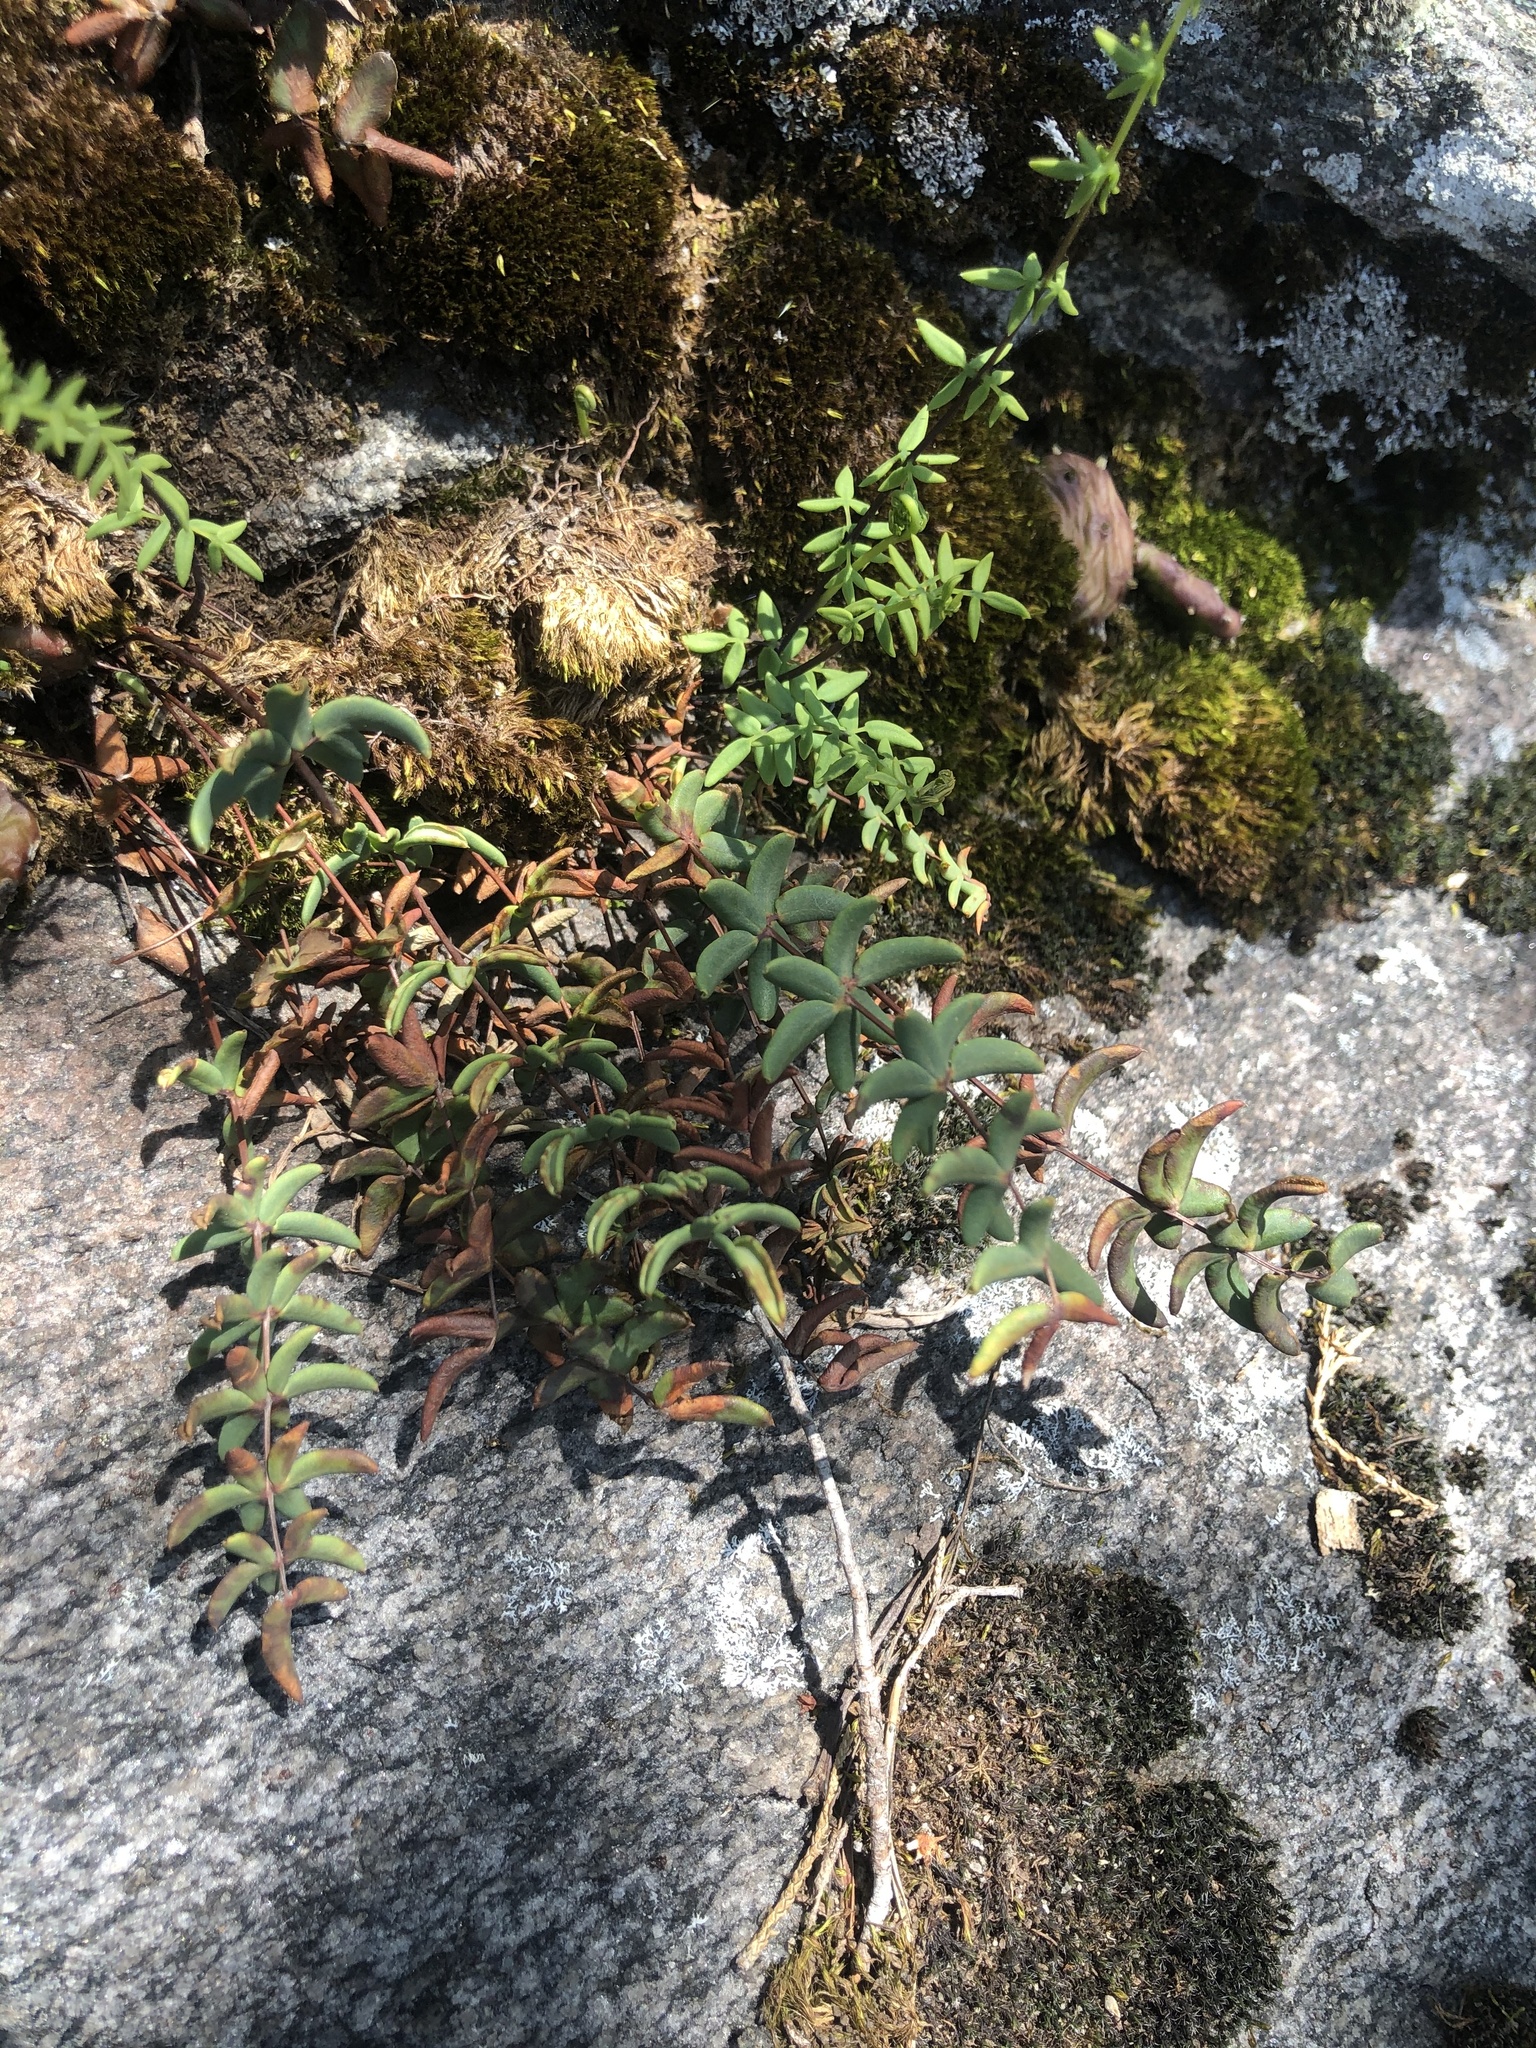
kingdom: Plantae
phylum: Tracheophyta
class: Polypodiopsida
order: Polypodiales
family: Pteridaceae
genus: Pellaea
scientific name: Pellaea wrightiana
